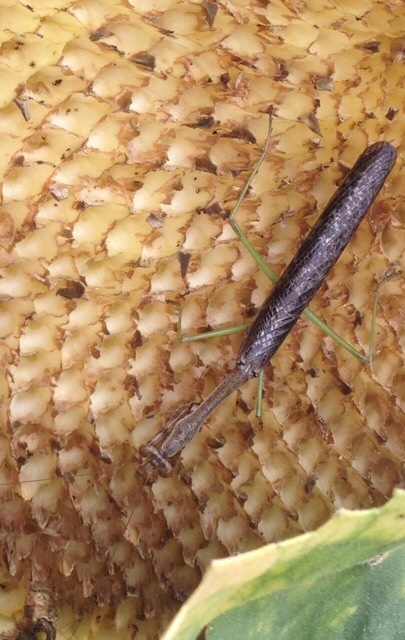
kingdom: Animalia
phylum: Arthropoda
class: Insecta
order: Mantodea
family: Mantidae
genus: Stagmomantis
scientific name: Stagmomantis carolina
